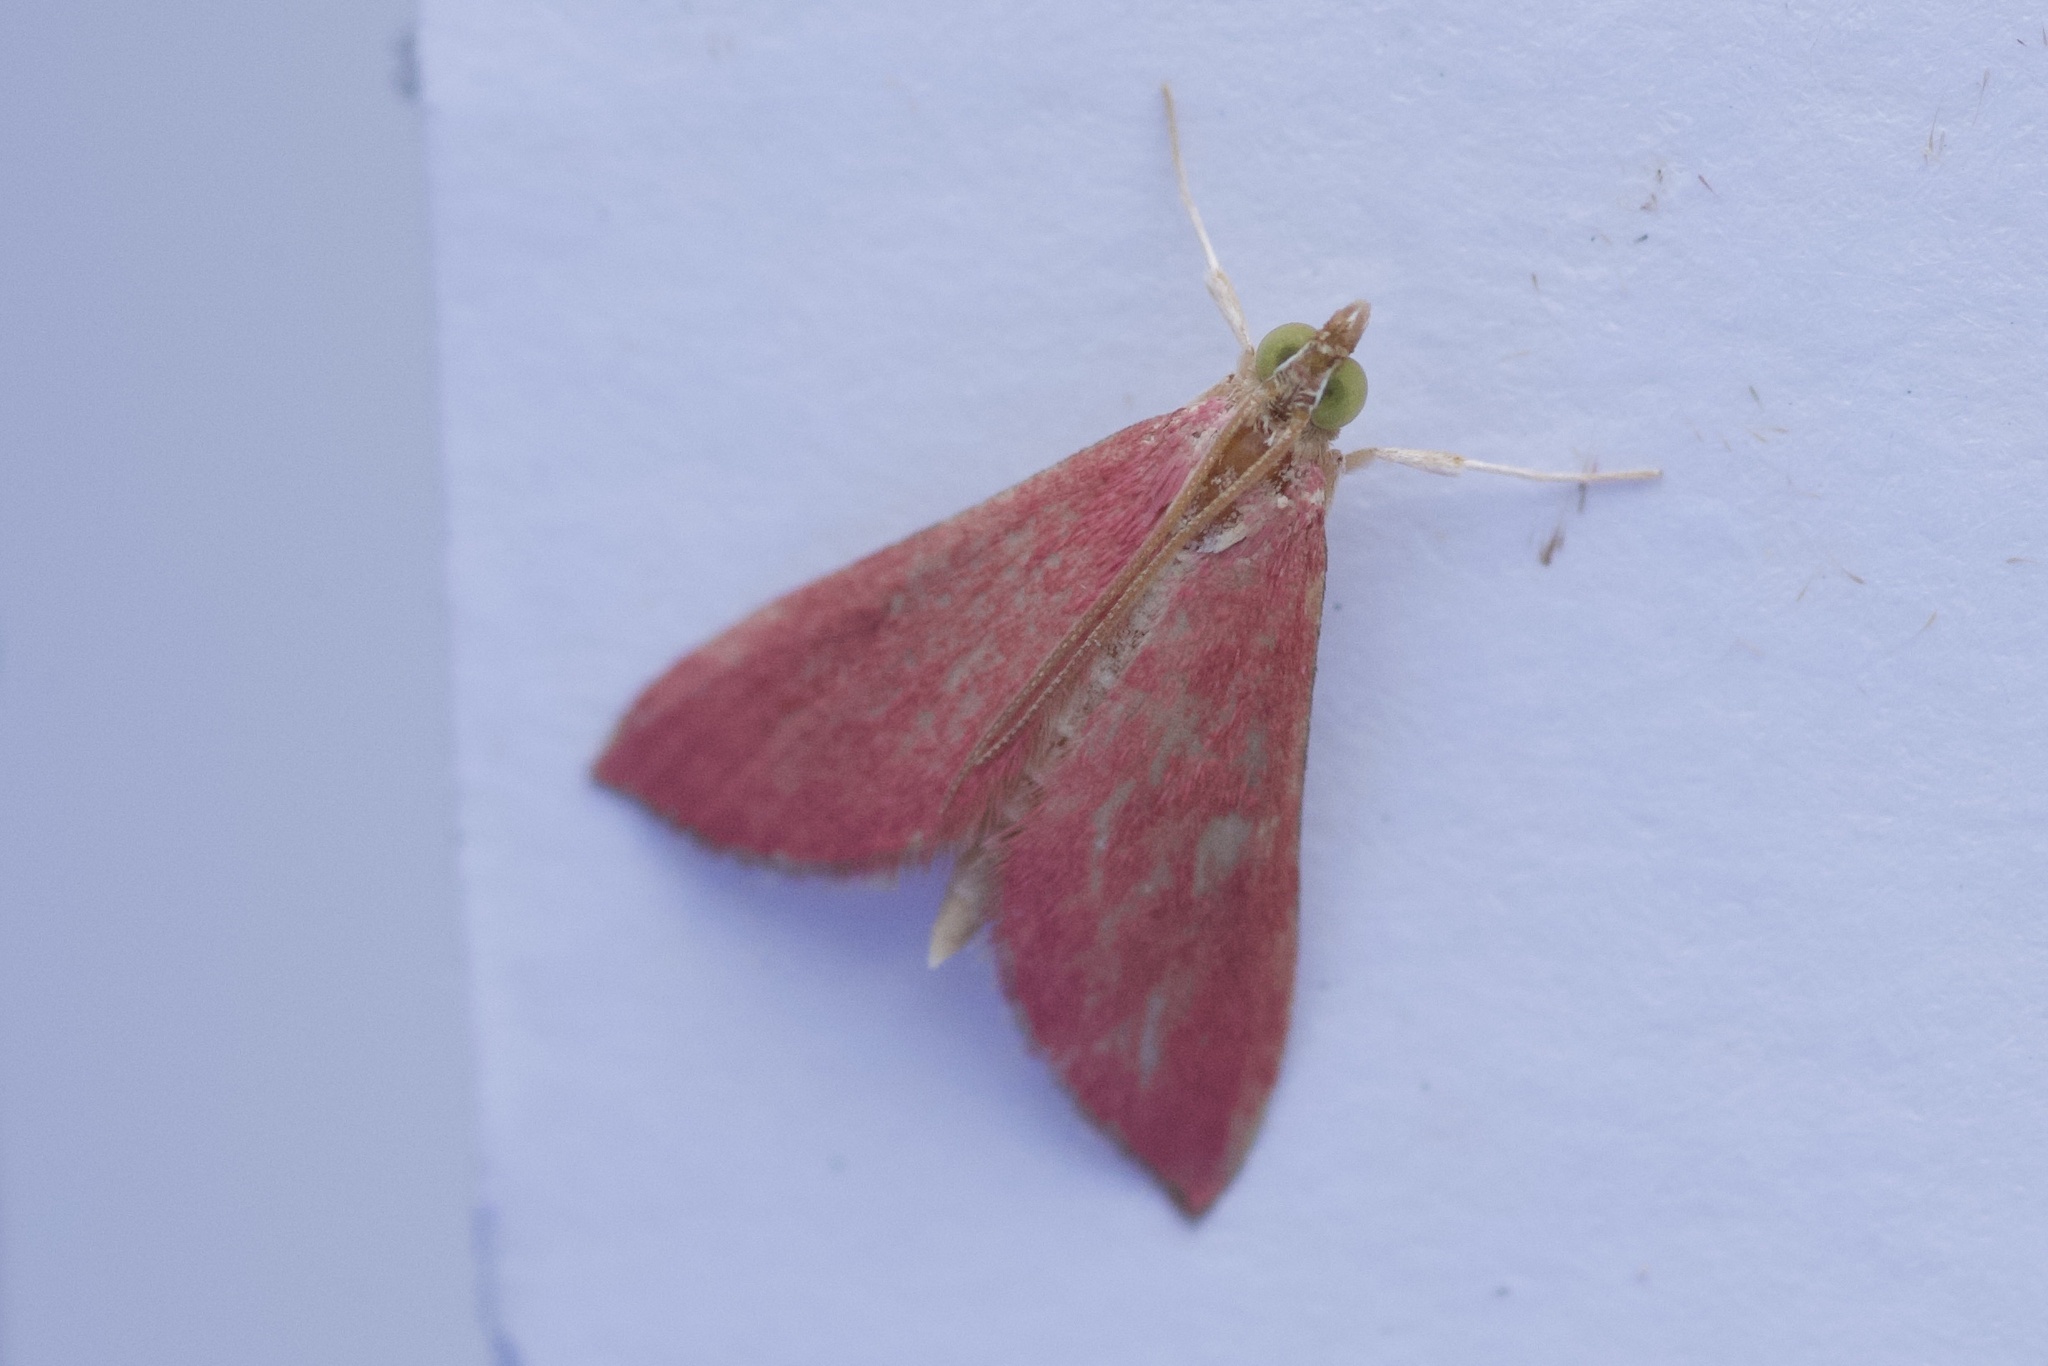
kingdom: Animalia
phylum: Arthropoda
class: Insecta
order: Lepidoptera
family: Crambidae
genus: Pyrausta
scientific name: Pyrausta inornatalis
